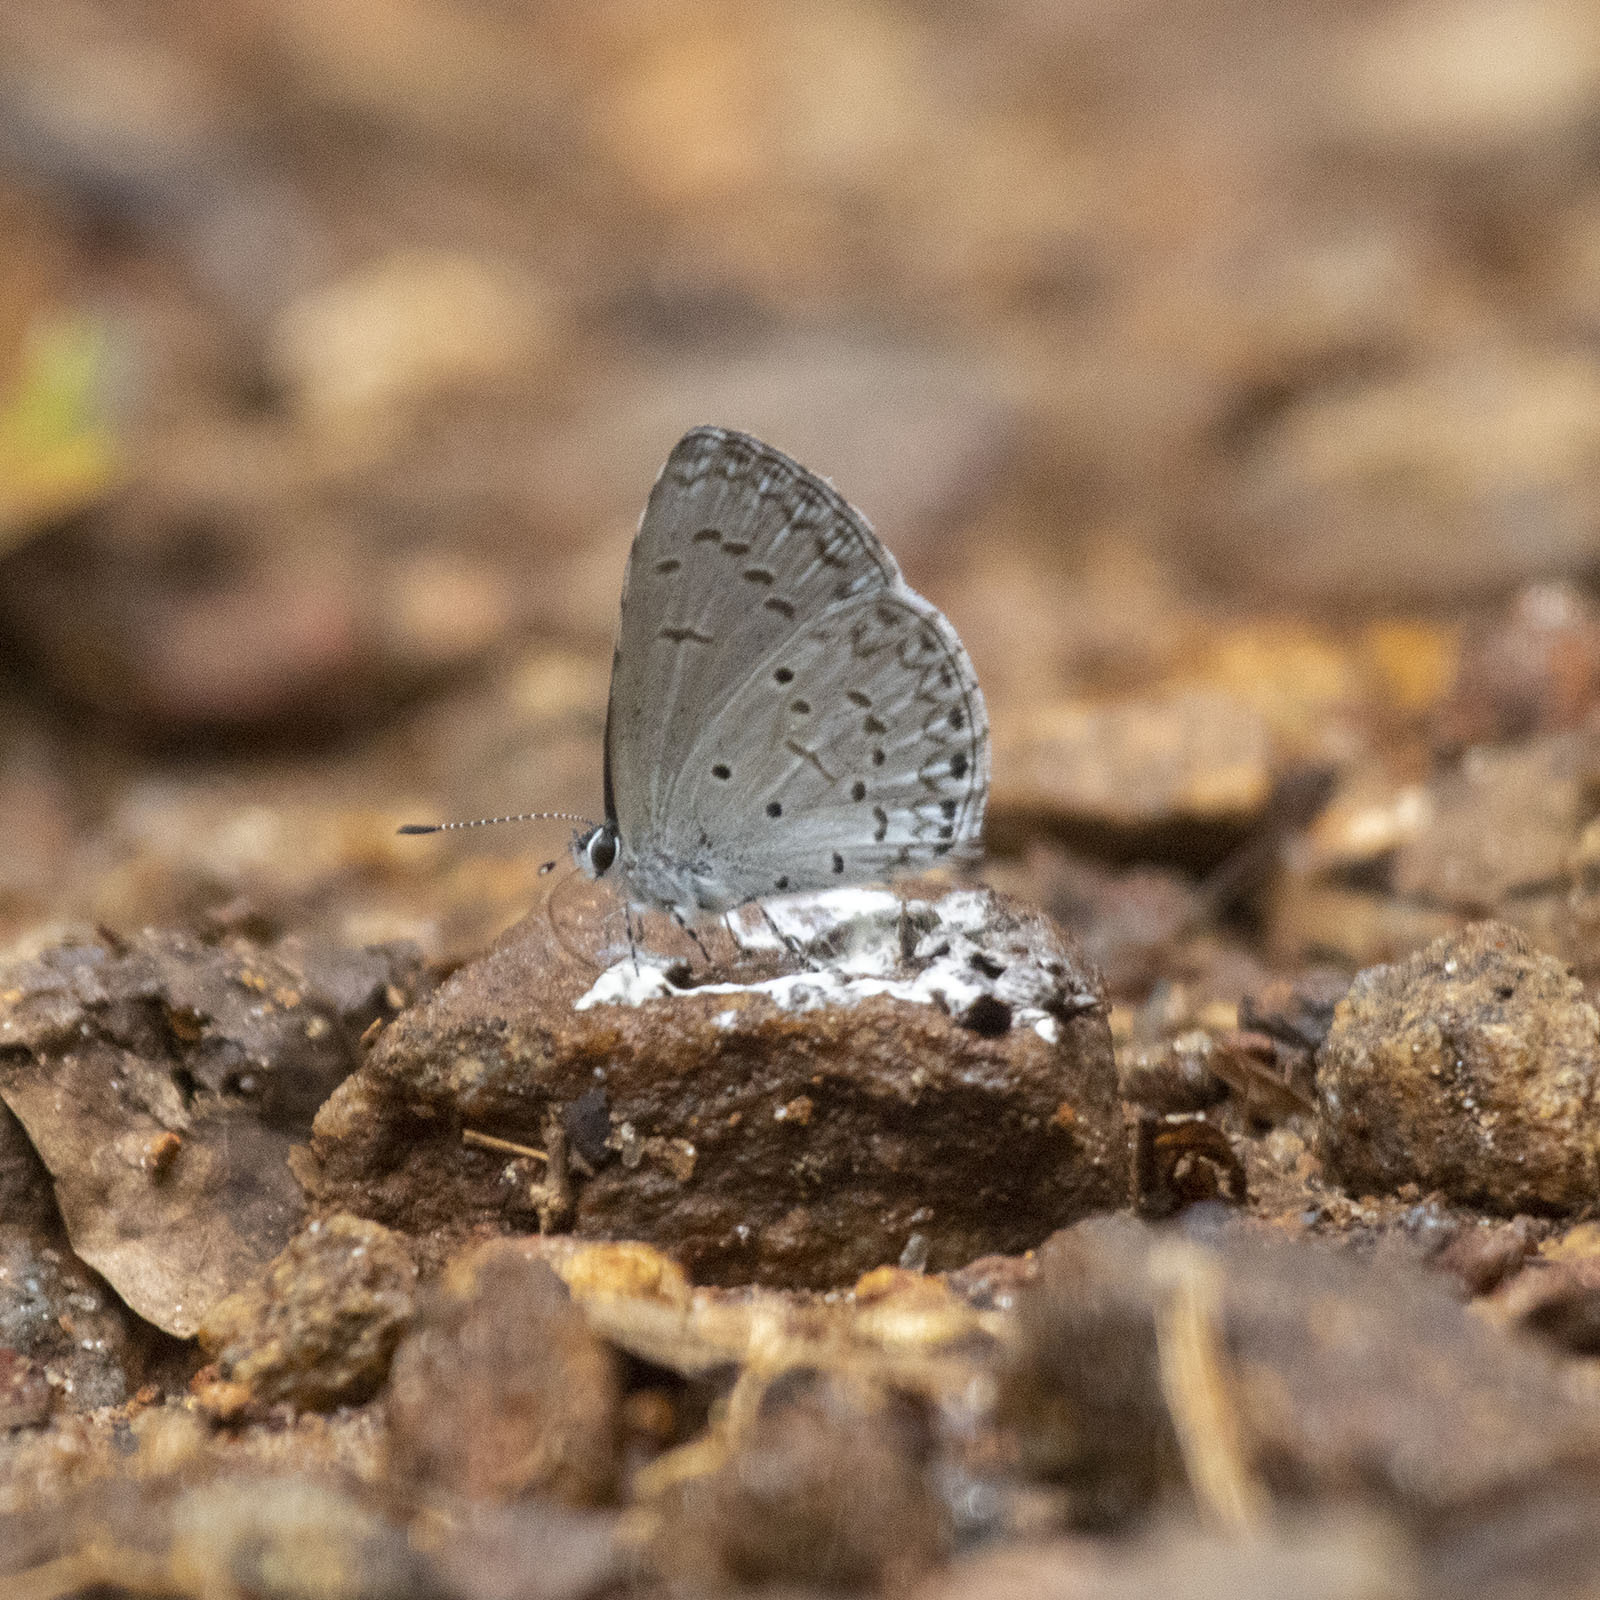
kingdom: Animalia
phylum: Arthropoda
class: Insecta
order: Lepidoptera
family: Lycaenidae
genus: Celastrina
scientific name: Celastrina lavendularis
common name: Plain hedge blue
